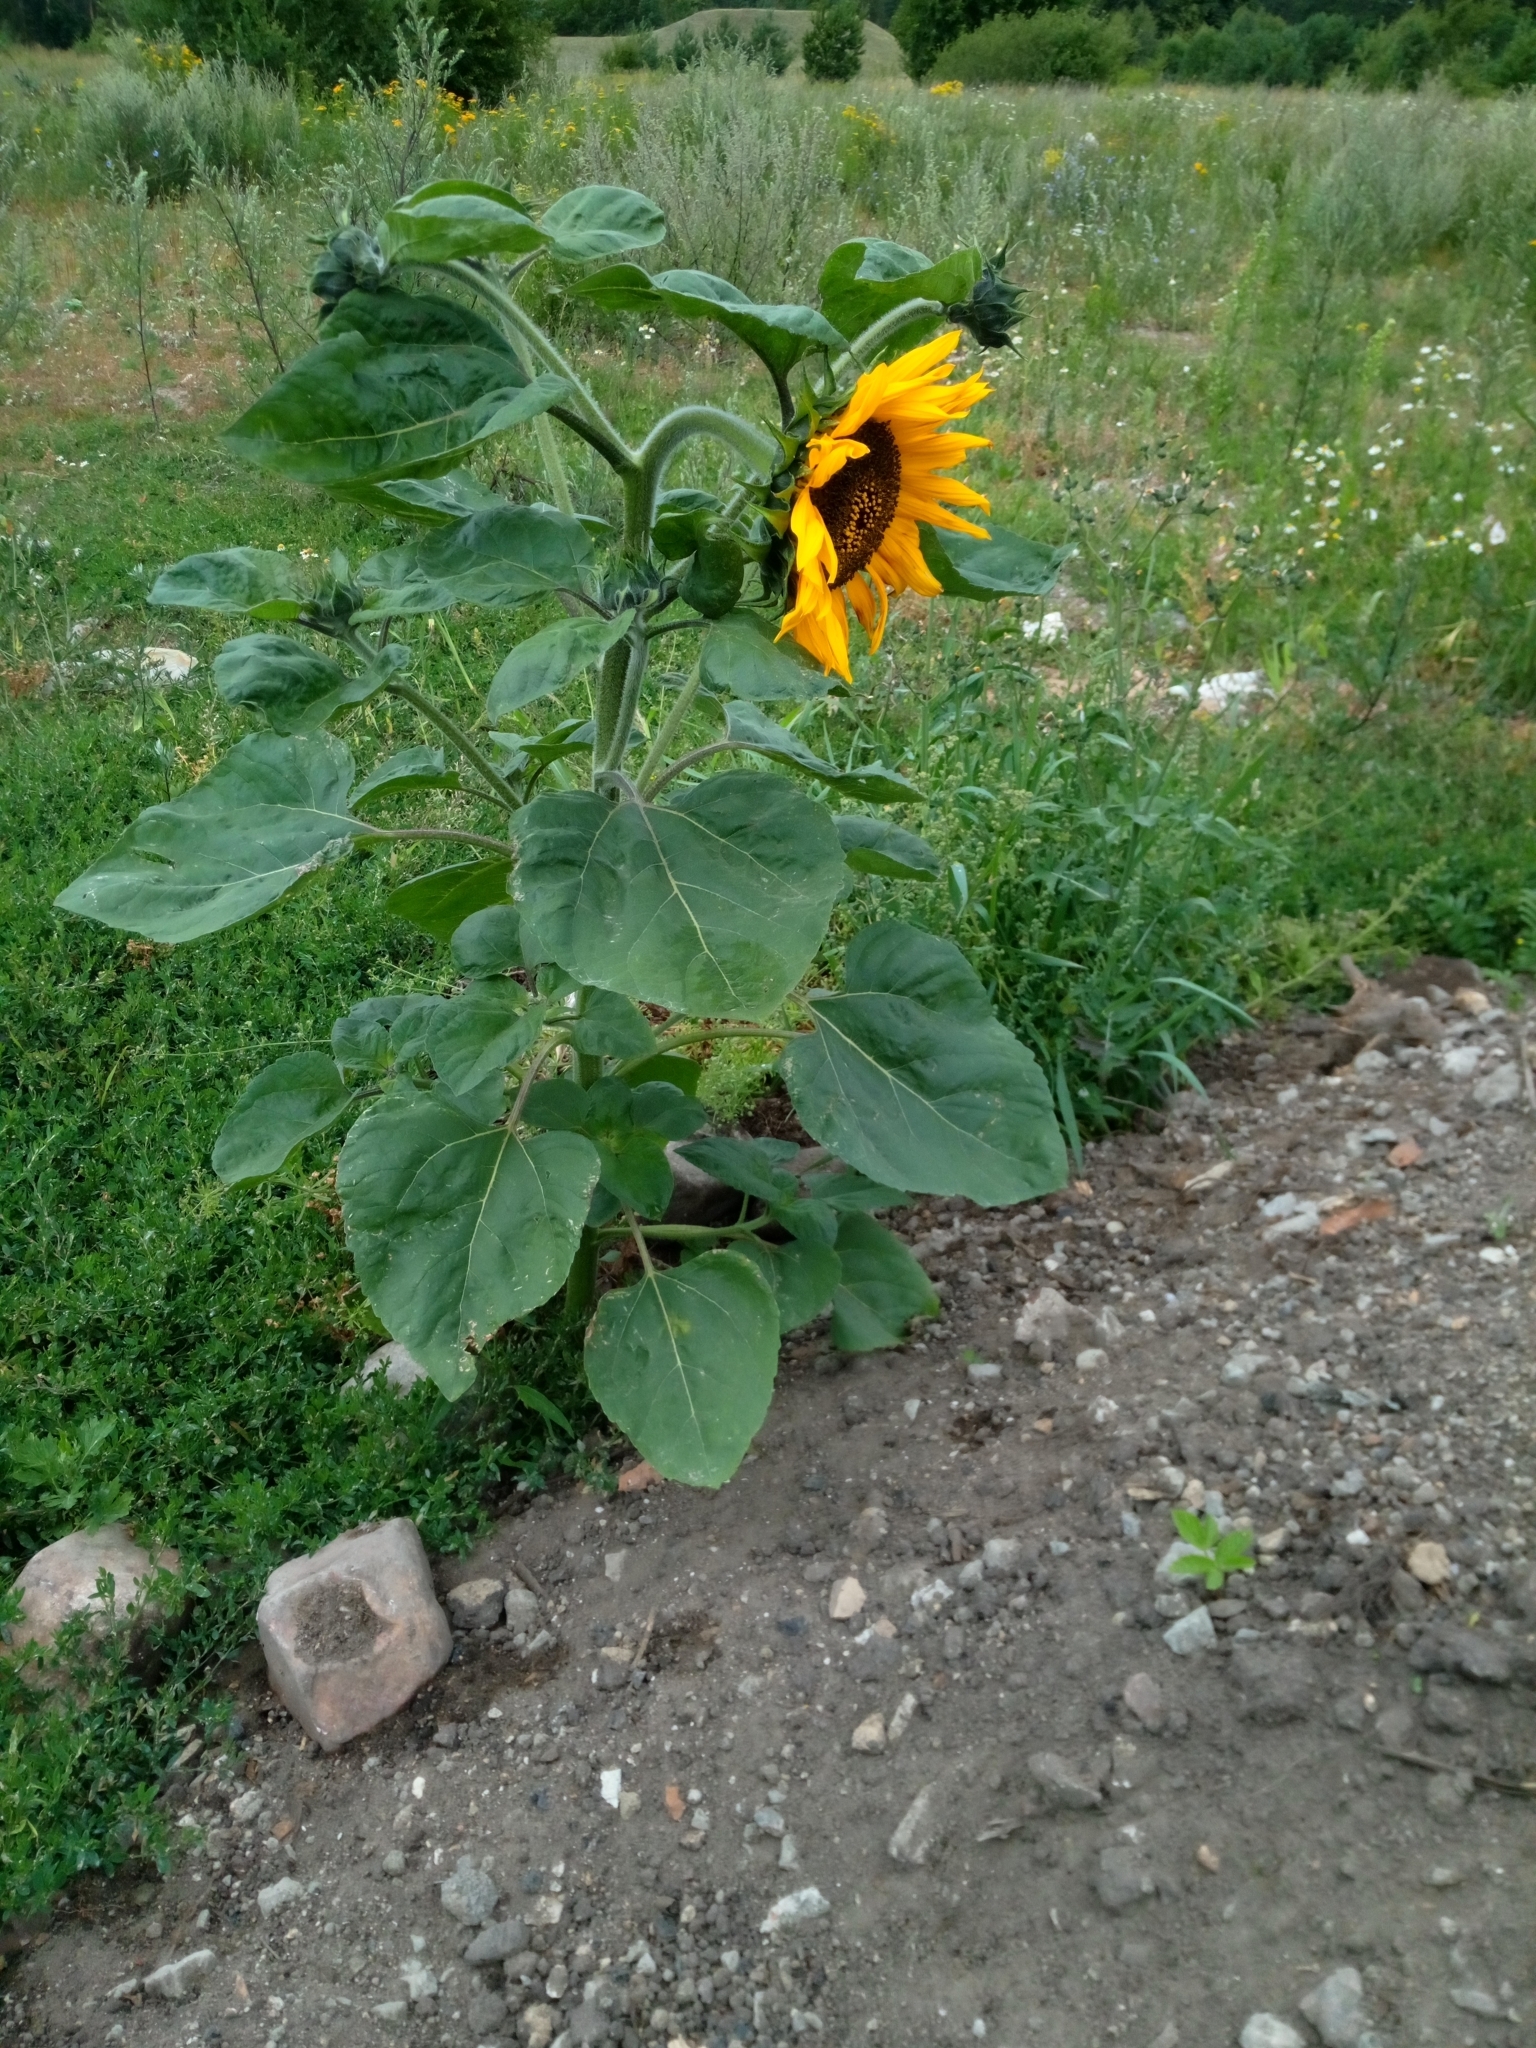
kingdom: Plantae
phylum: Tracheophyta
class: Magnoliopsida
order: Asterales
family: Asteraceae
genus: Helianthus
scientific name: Helianthus annuus
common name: Sunflower
